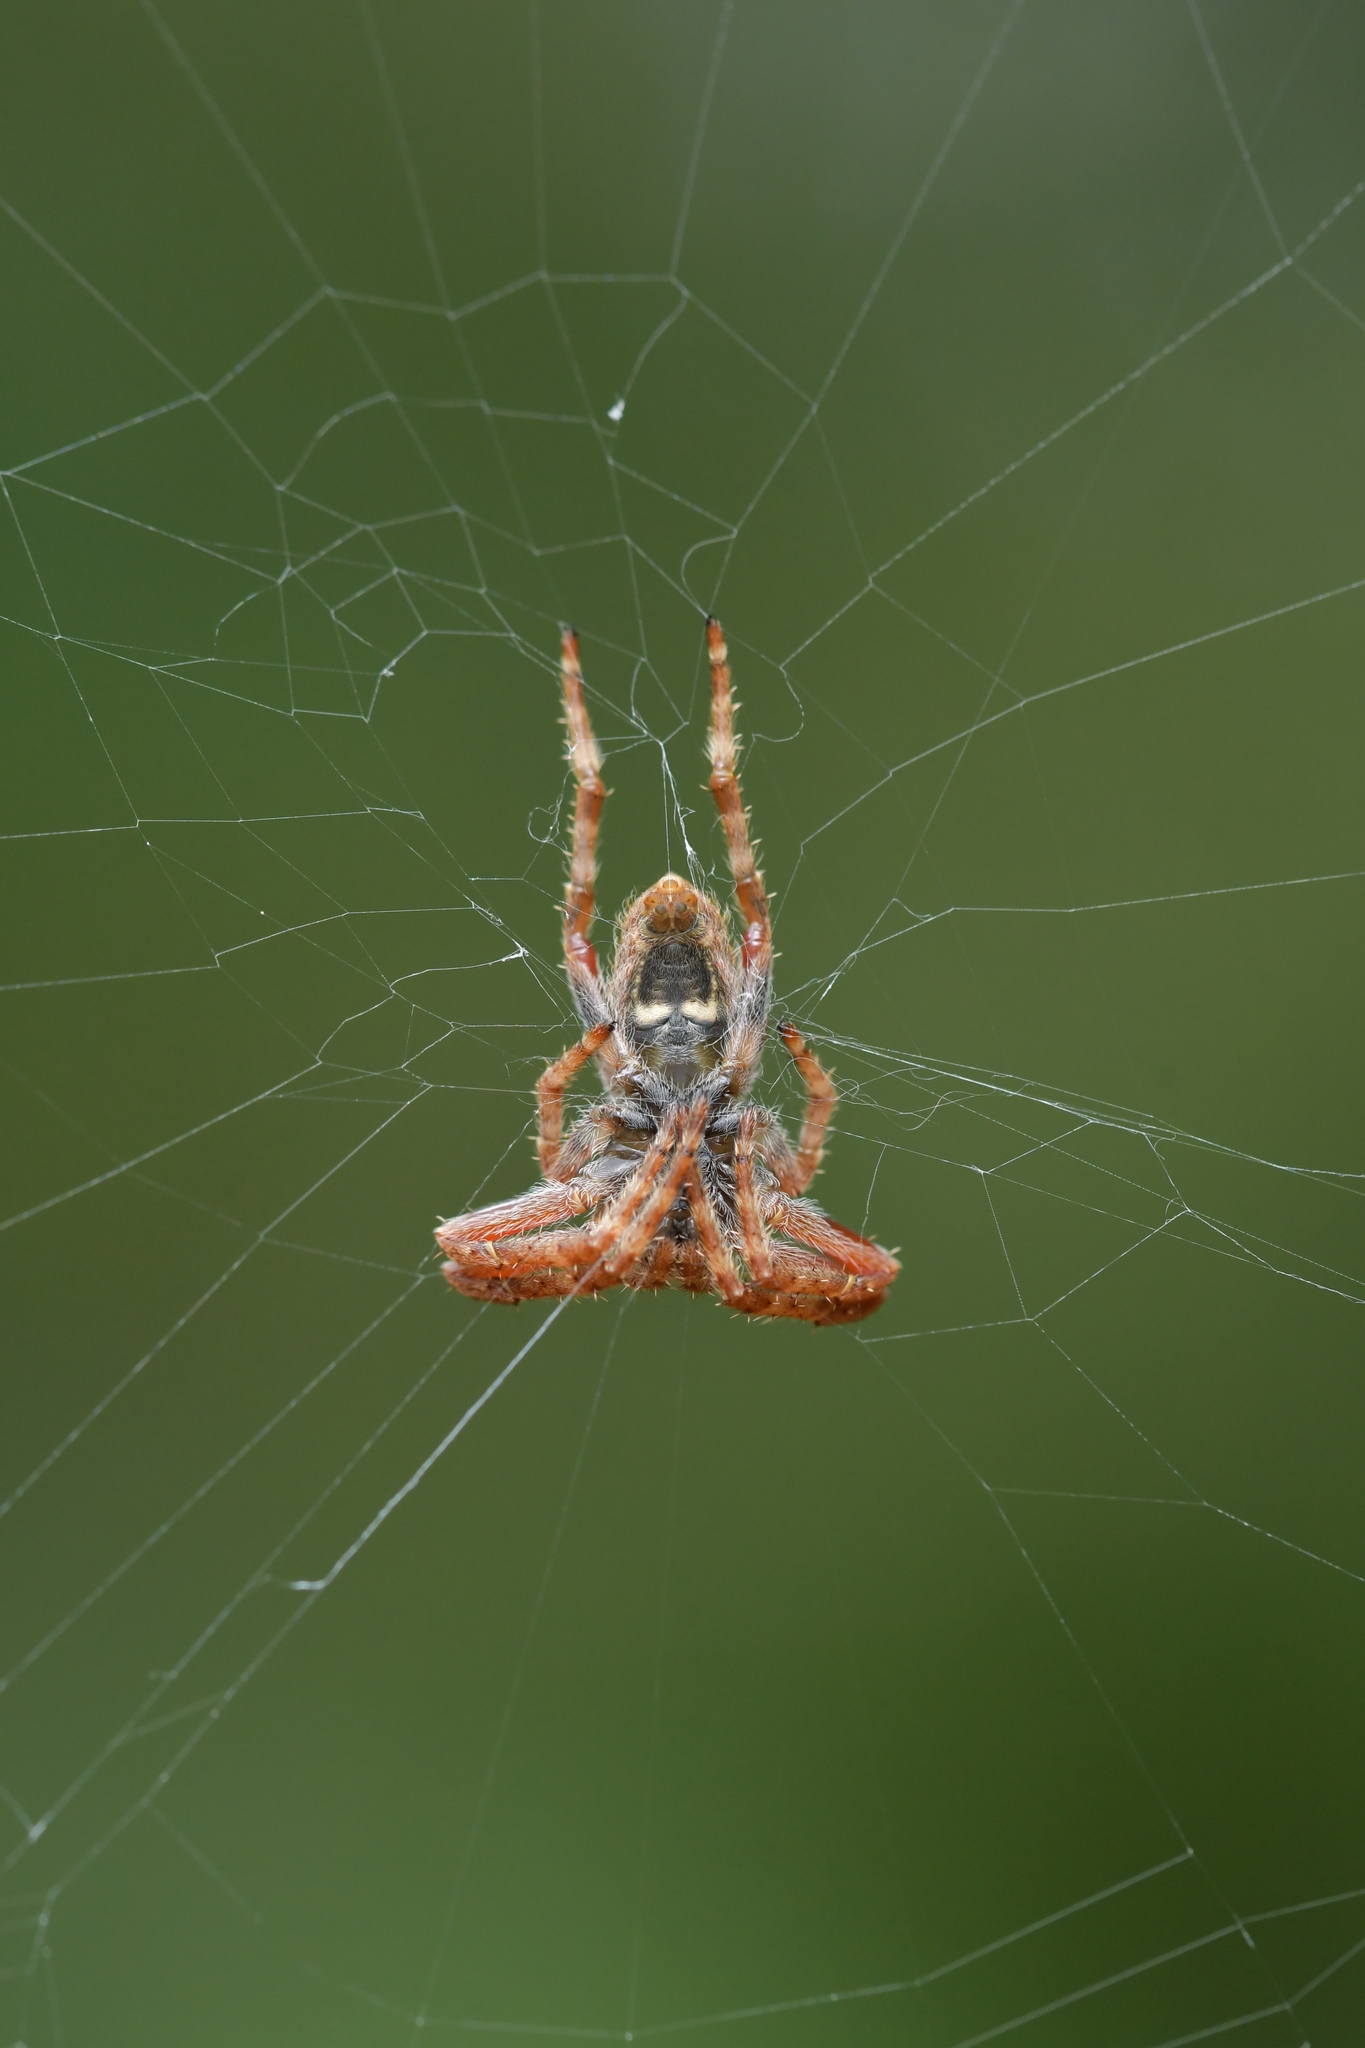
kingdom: Animalia
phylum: Arthropoda
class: Arachnida
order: Araneae
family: Araneidae
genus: Eriophora
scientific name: Eriophora pustulosa
